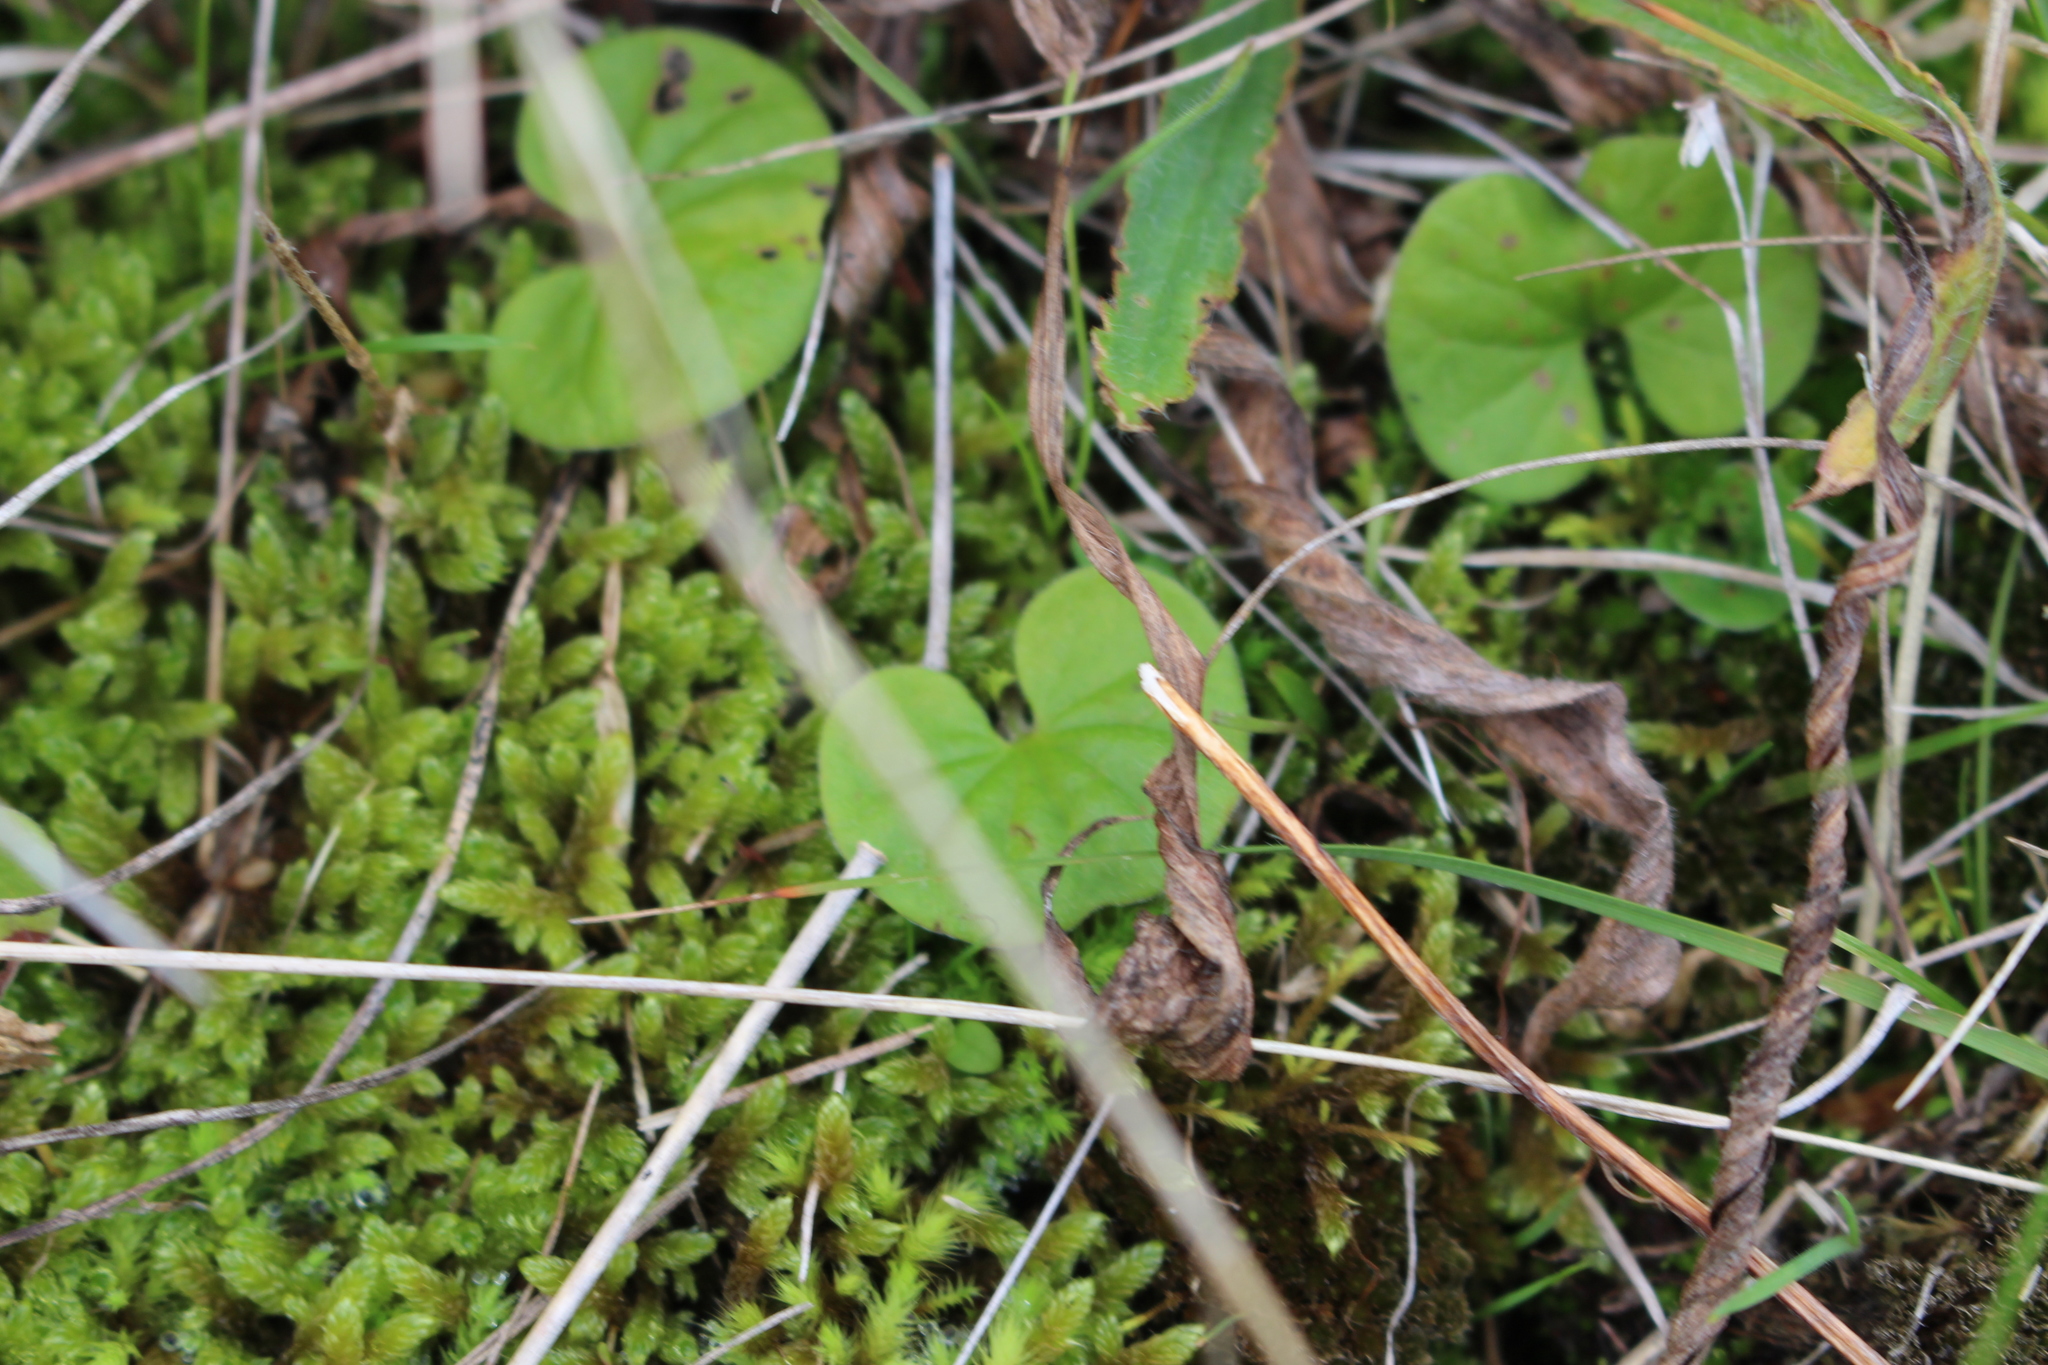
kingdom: Plantae
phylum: Tracheophyta
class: Magnoliopsida
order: Solanales
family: Convolvulaceae
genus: Dichondra
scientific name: Dichondra repens
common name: Kidneyweed
